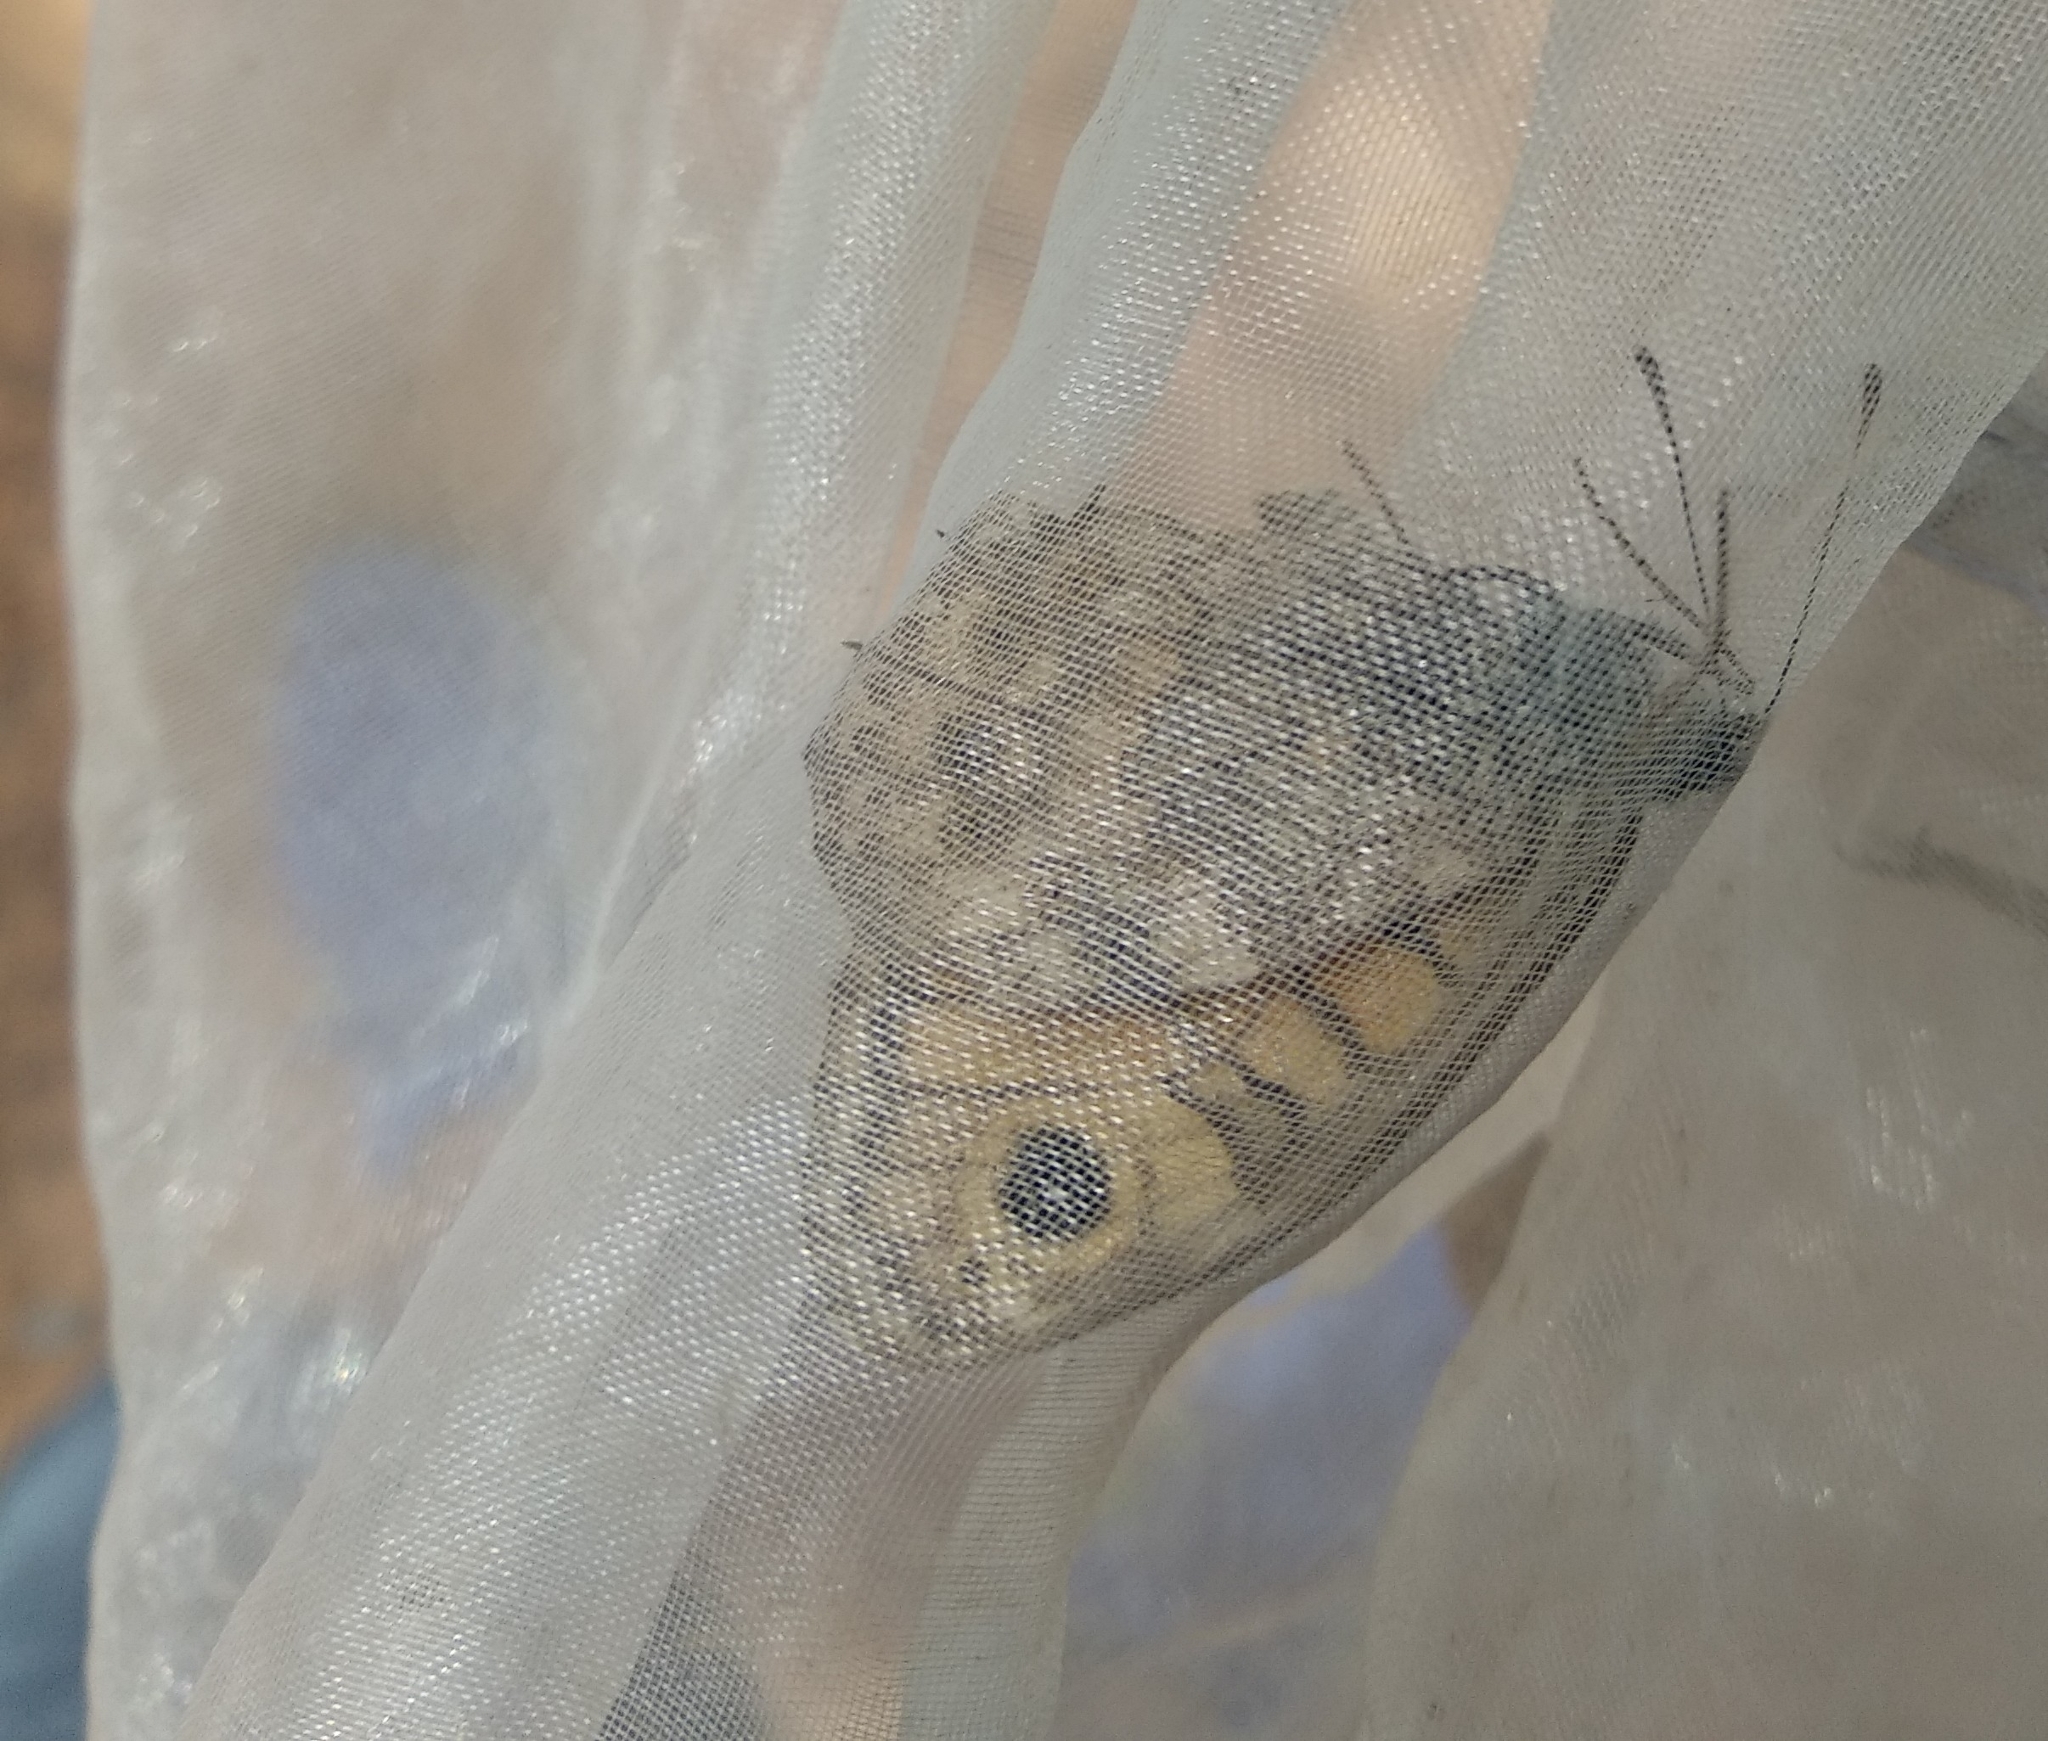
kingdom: Animalia
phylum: Arthropoda
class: Insecta
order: Lepidoptera
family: Nymphalidae
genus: Pararge
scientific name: Pararge Lasiommata megera
